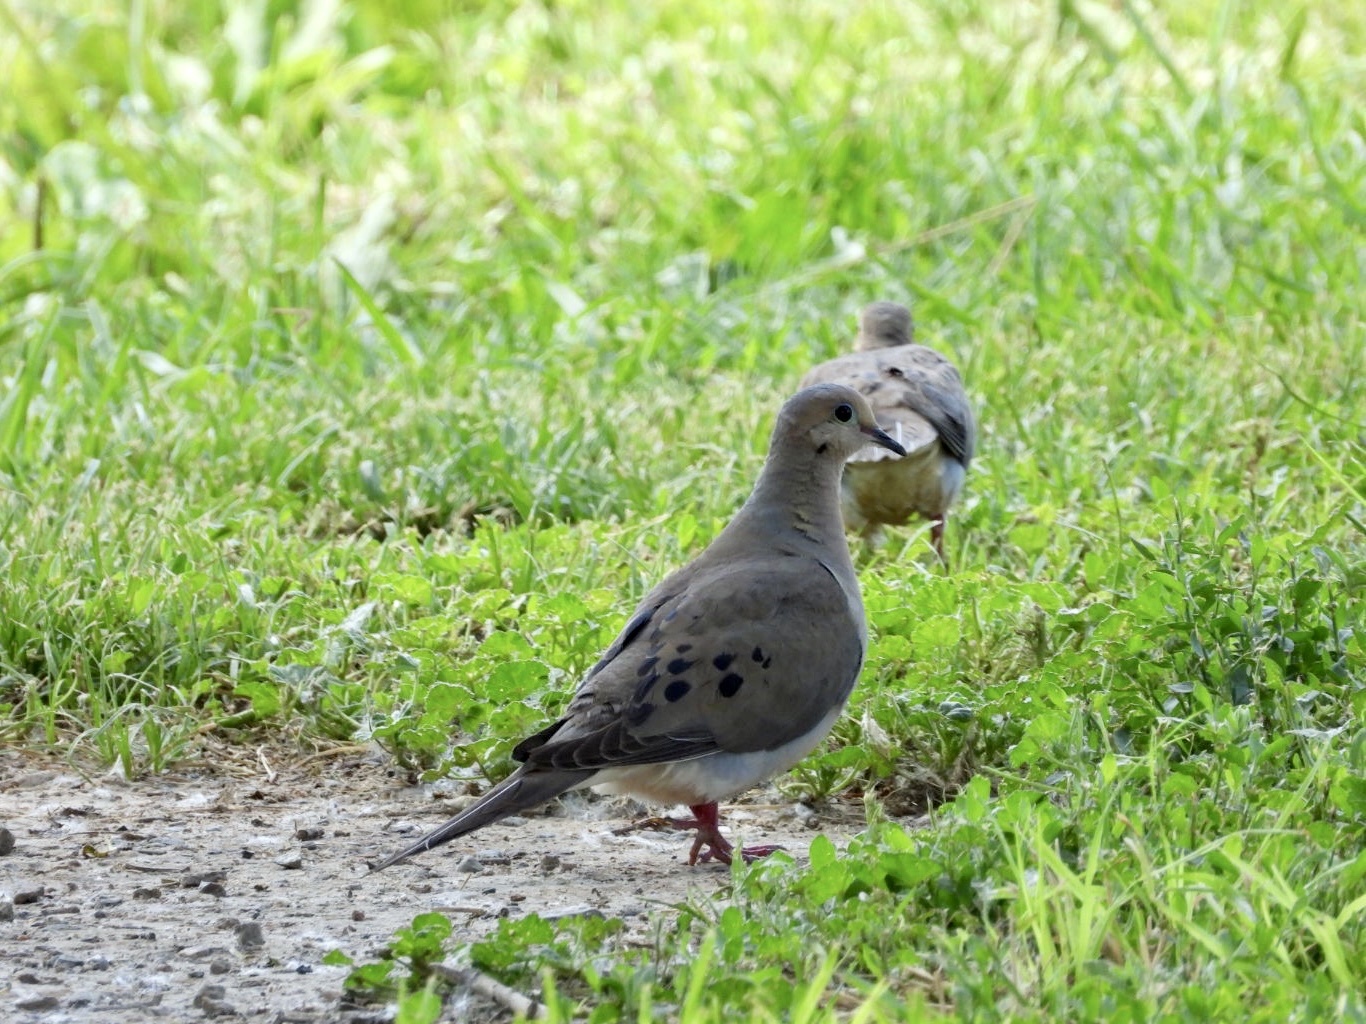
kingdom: Animalia
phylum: Chordata
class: Aves
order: Columbiformes
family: Columbidae
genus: Zenaida
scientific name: Zenaida macroura
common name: Mourning dove
